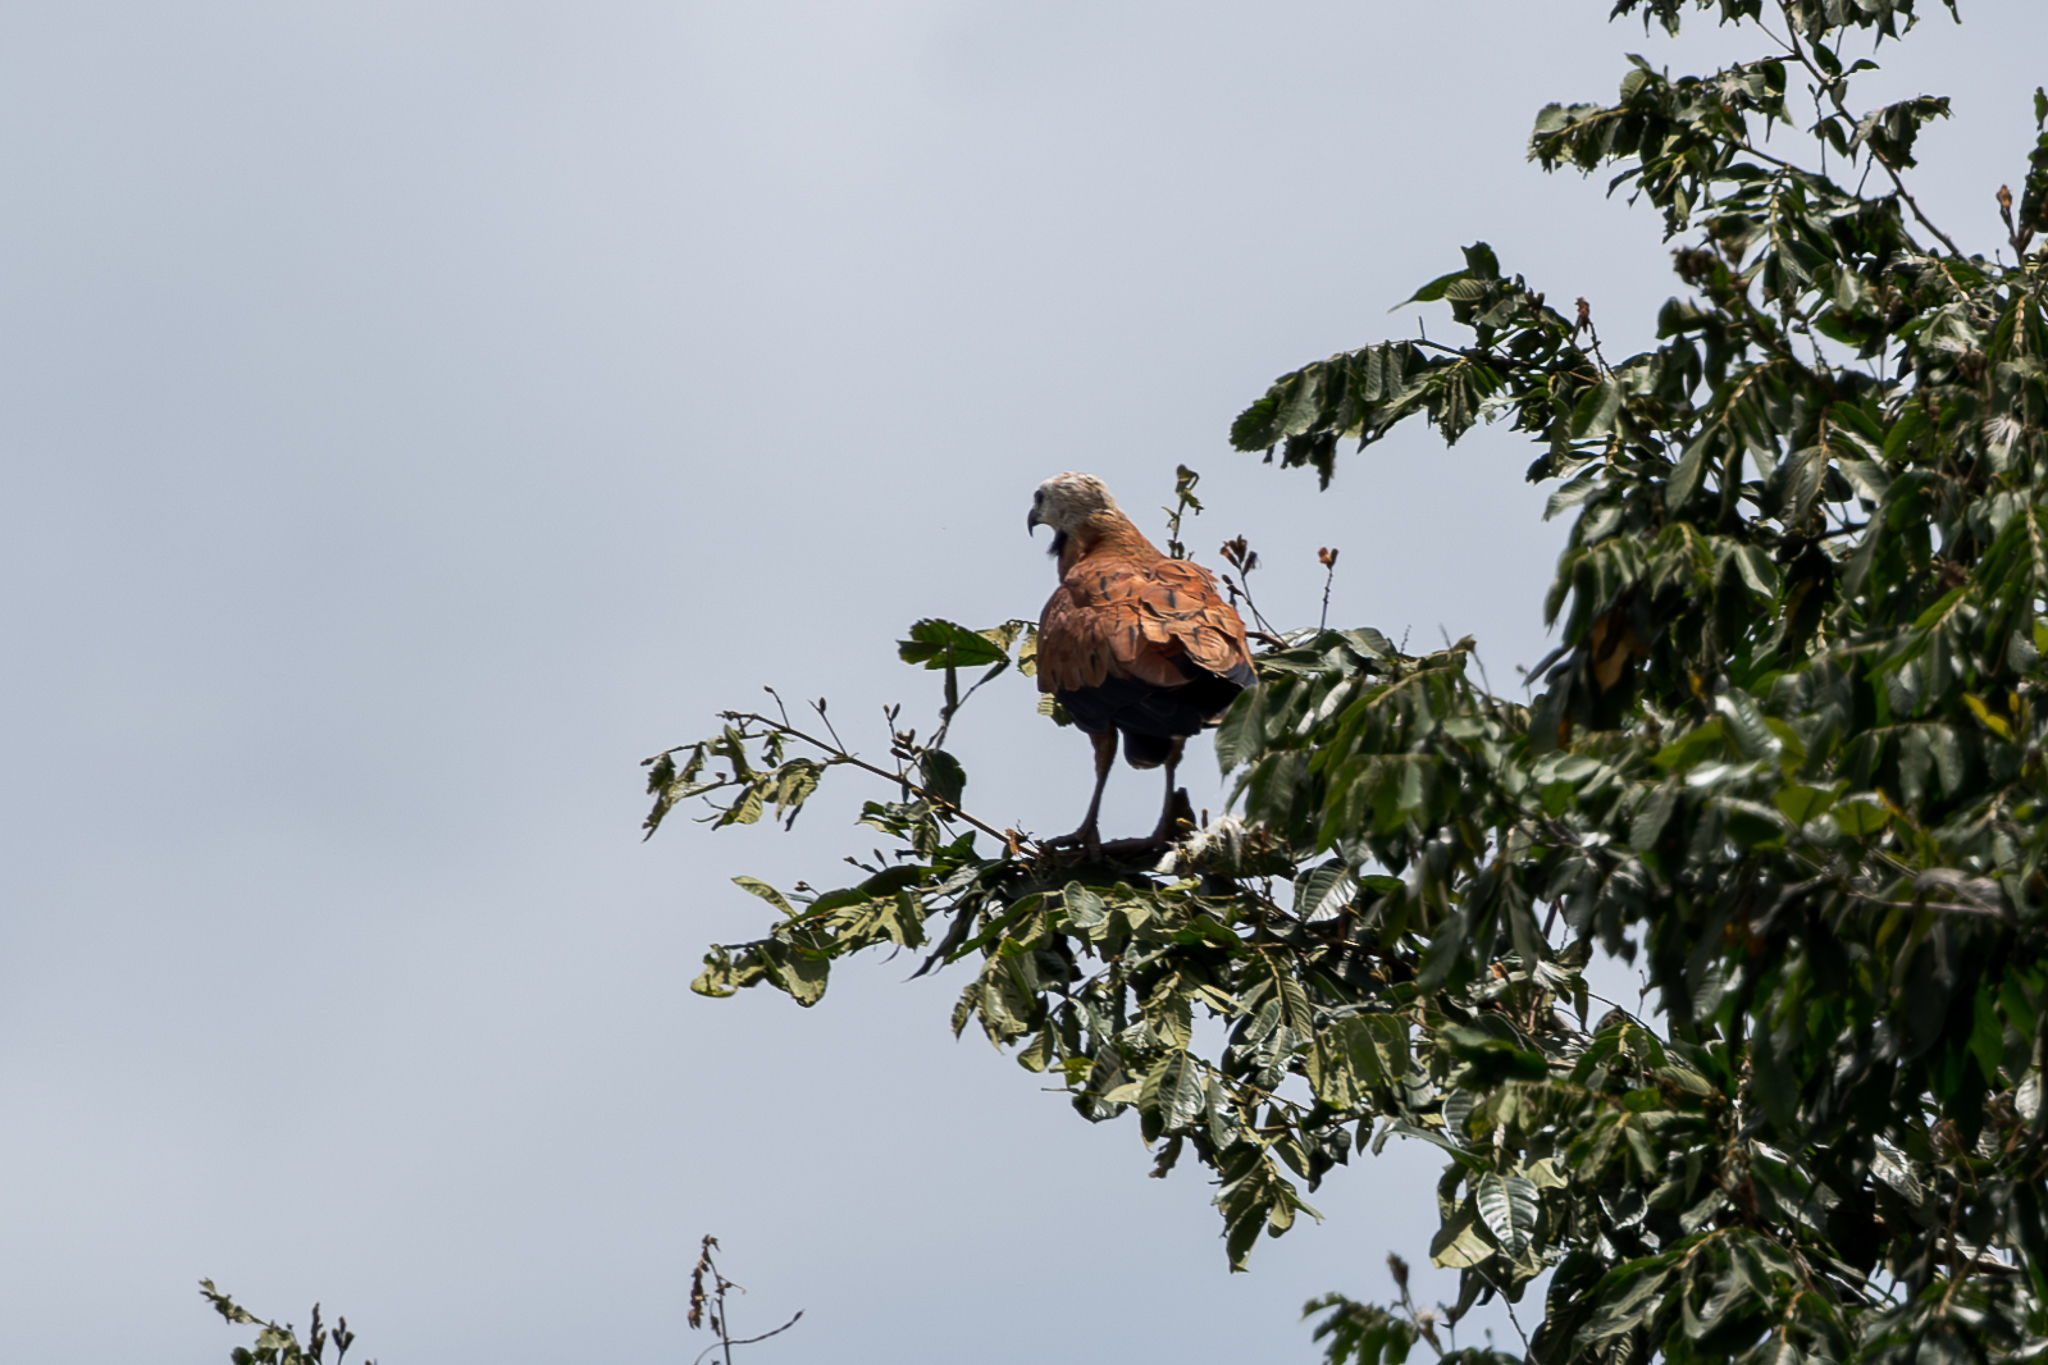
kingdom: Animalia
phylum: Chordata
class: Aves
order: Accipitriformes
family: Accipitridae
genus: Busarellus
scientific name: Busarellus nigricollis
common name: Black-collared hawk
